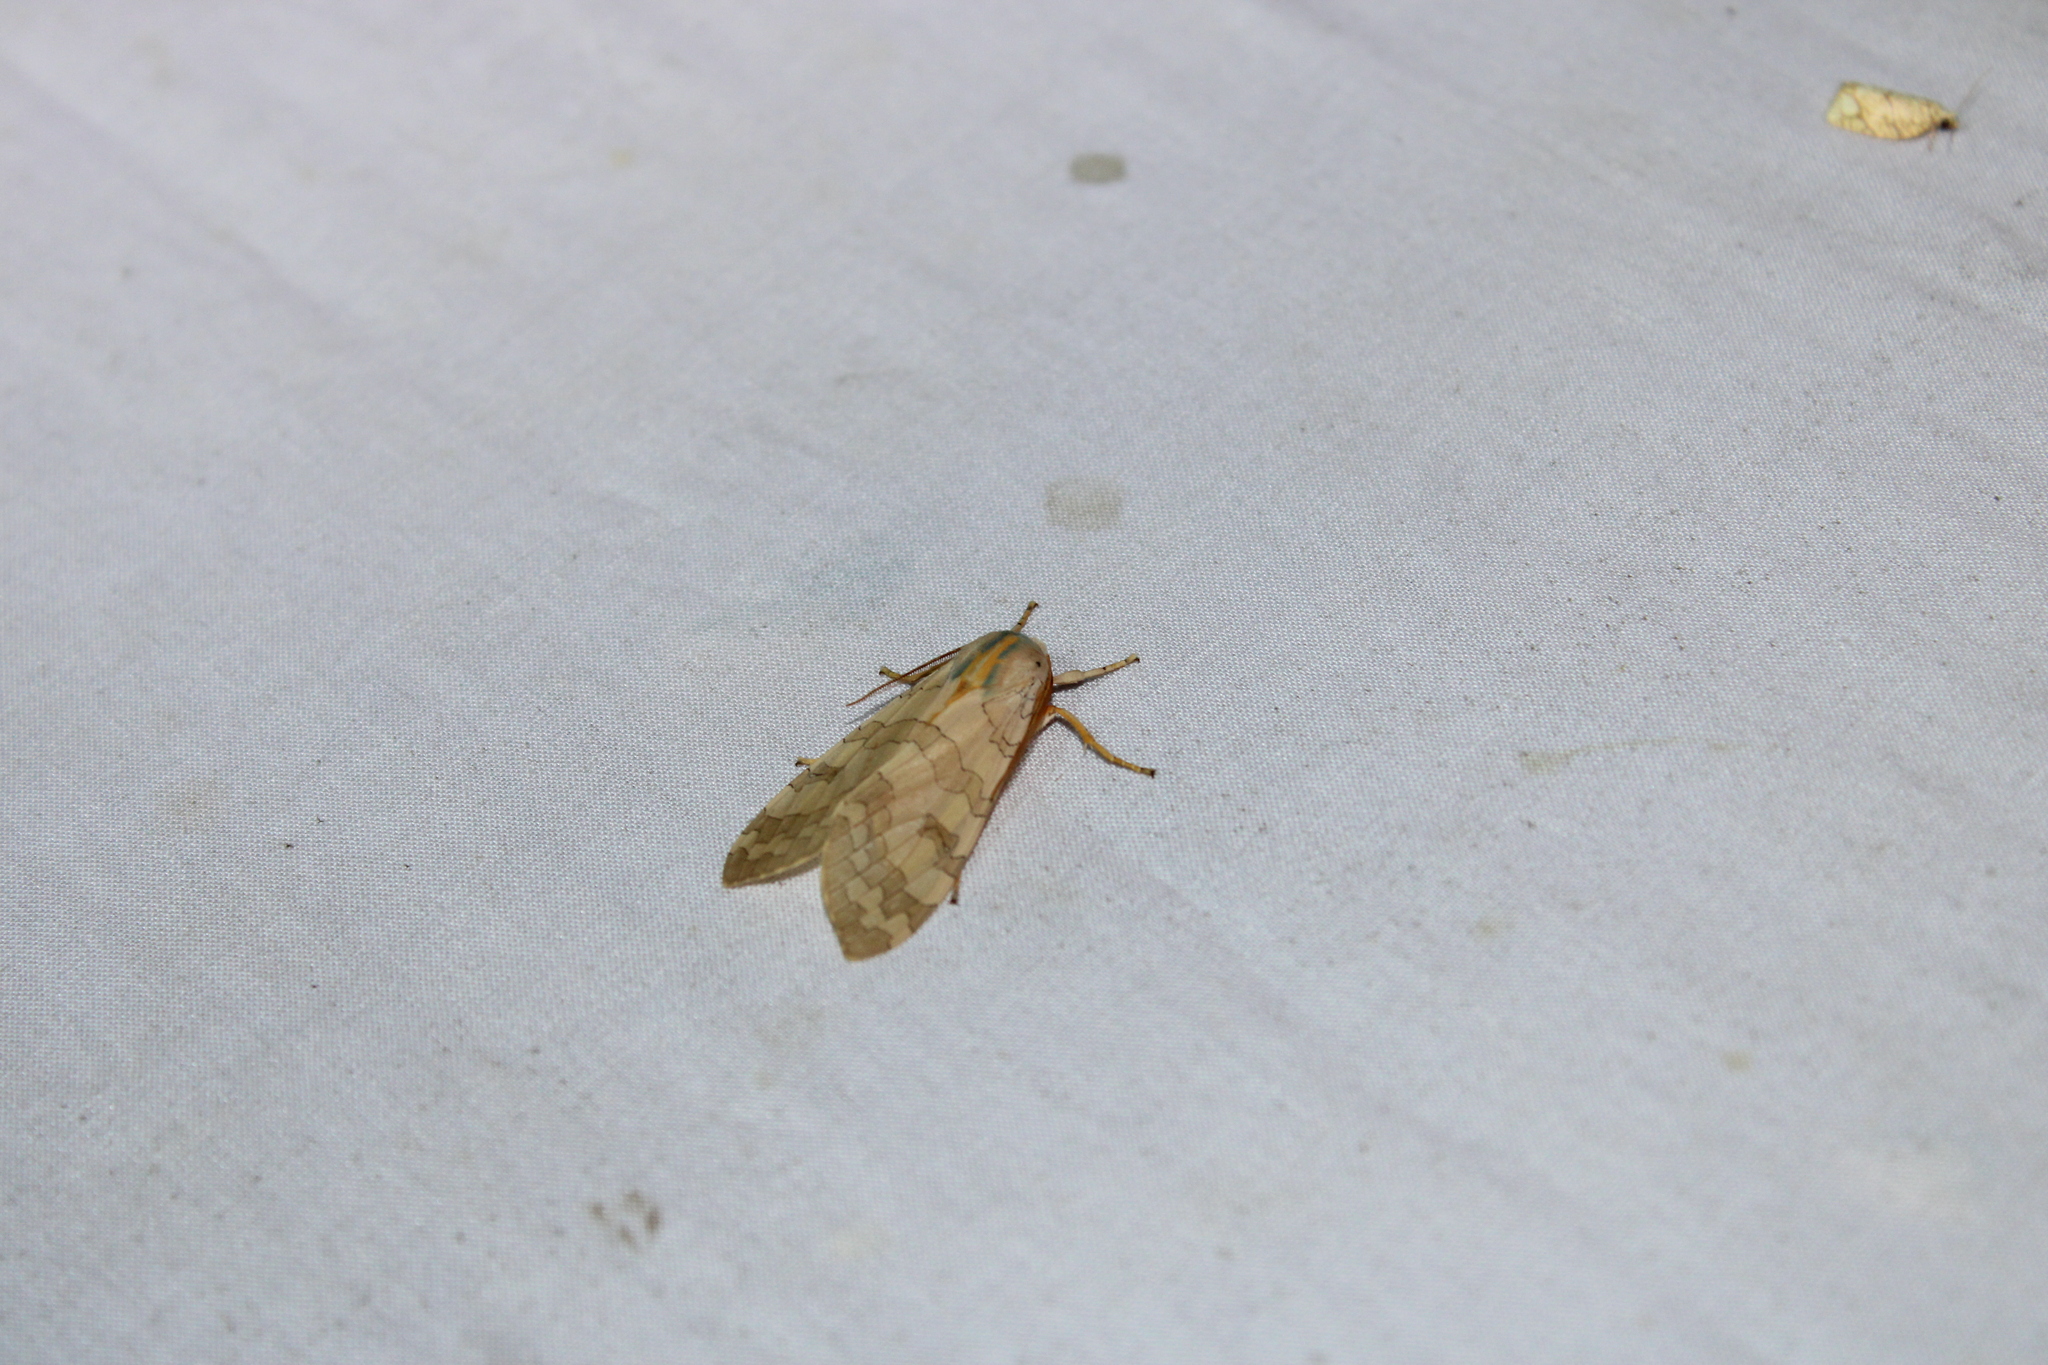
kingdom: Animalia
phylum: Arthropoda
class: Insecta
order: Lepidoptera
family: Erebidae
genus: Halysidota
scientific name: Halysidota
